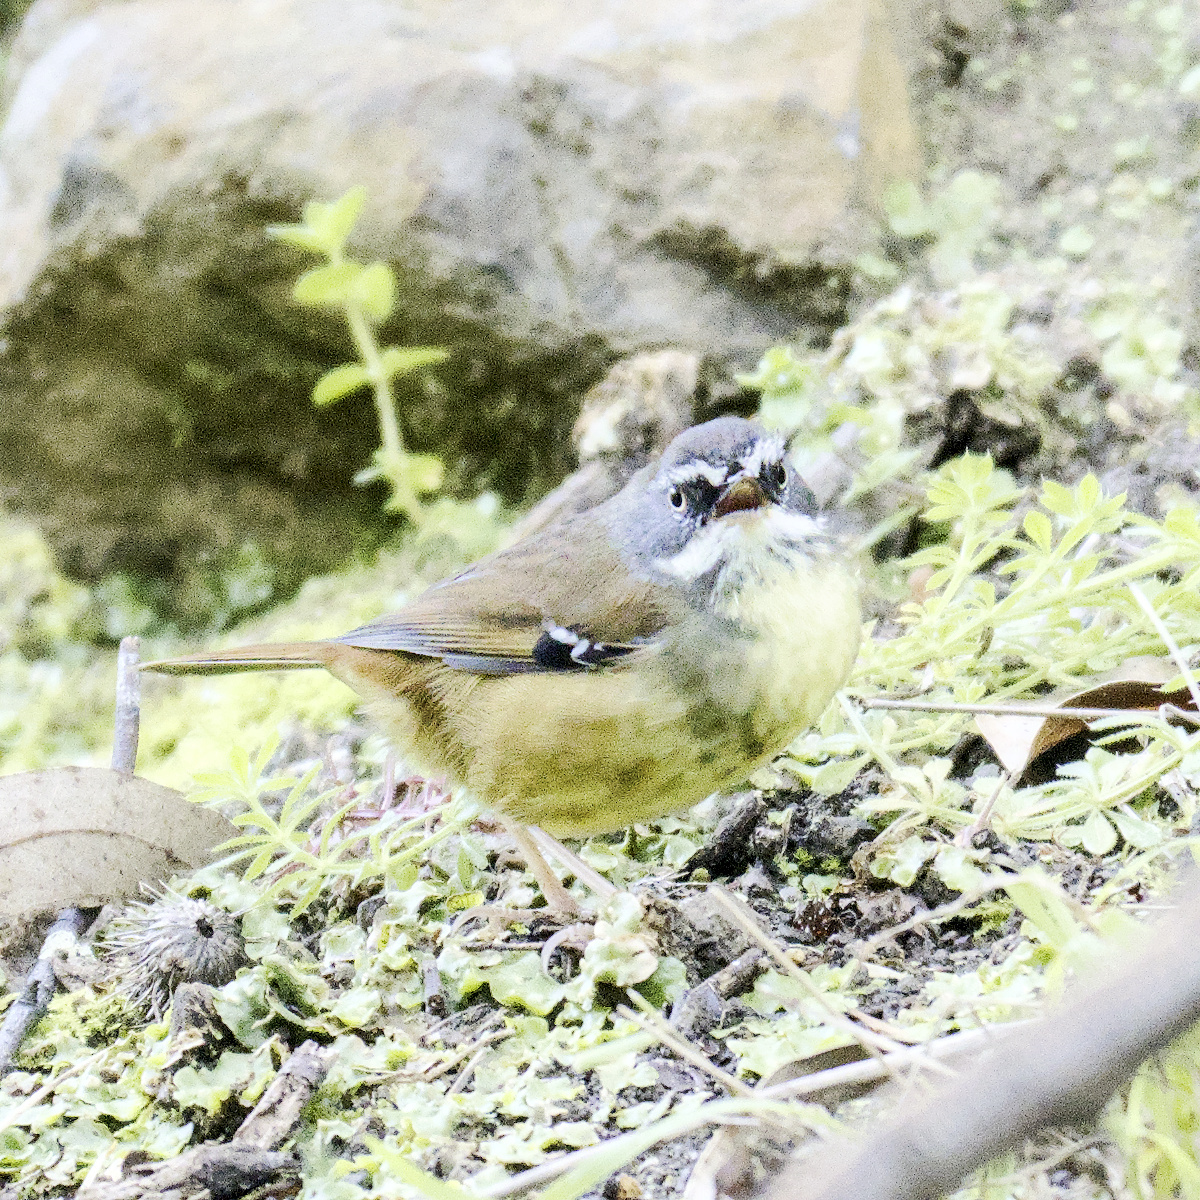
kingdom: Animalia
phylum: Chordata
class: Aves
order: Passeriformes
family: Acanthizidae
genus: Sericornis
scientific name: Sericornis frontalis
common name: White-browed scrubwren
